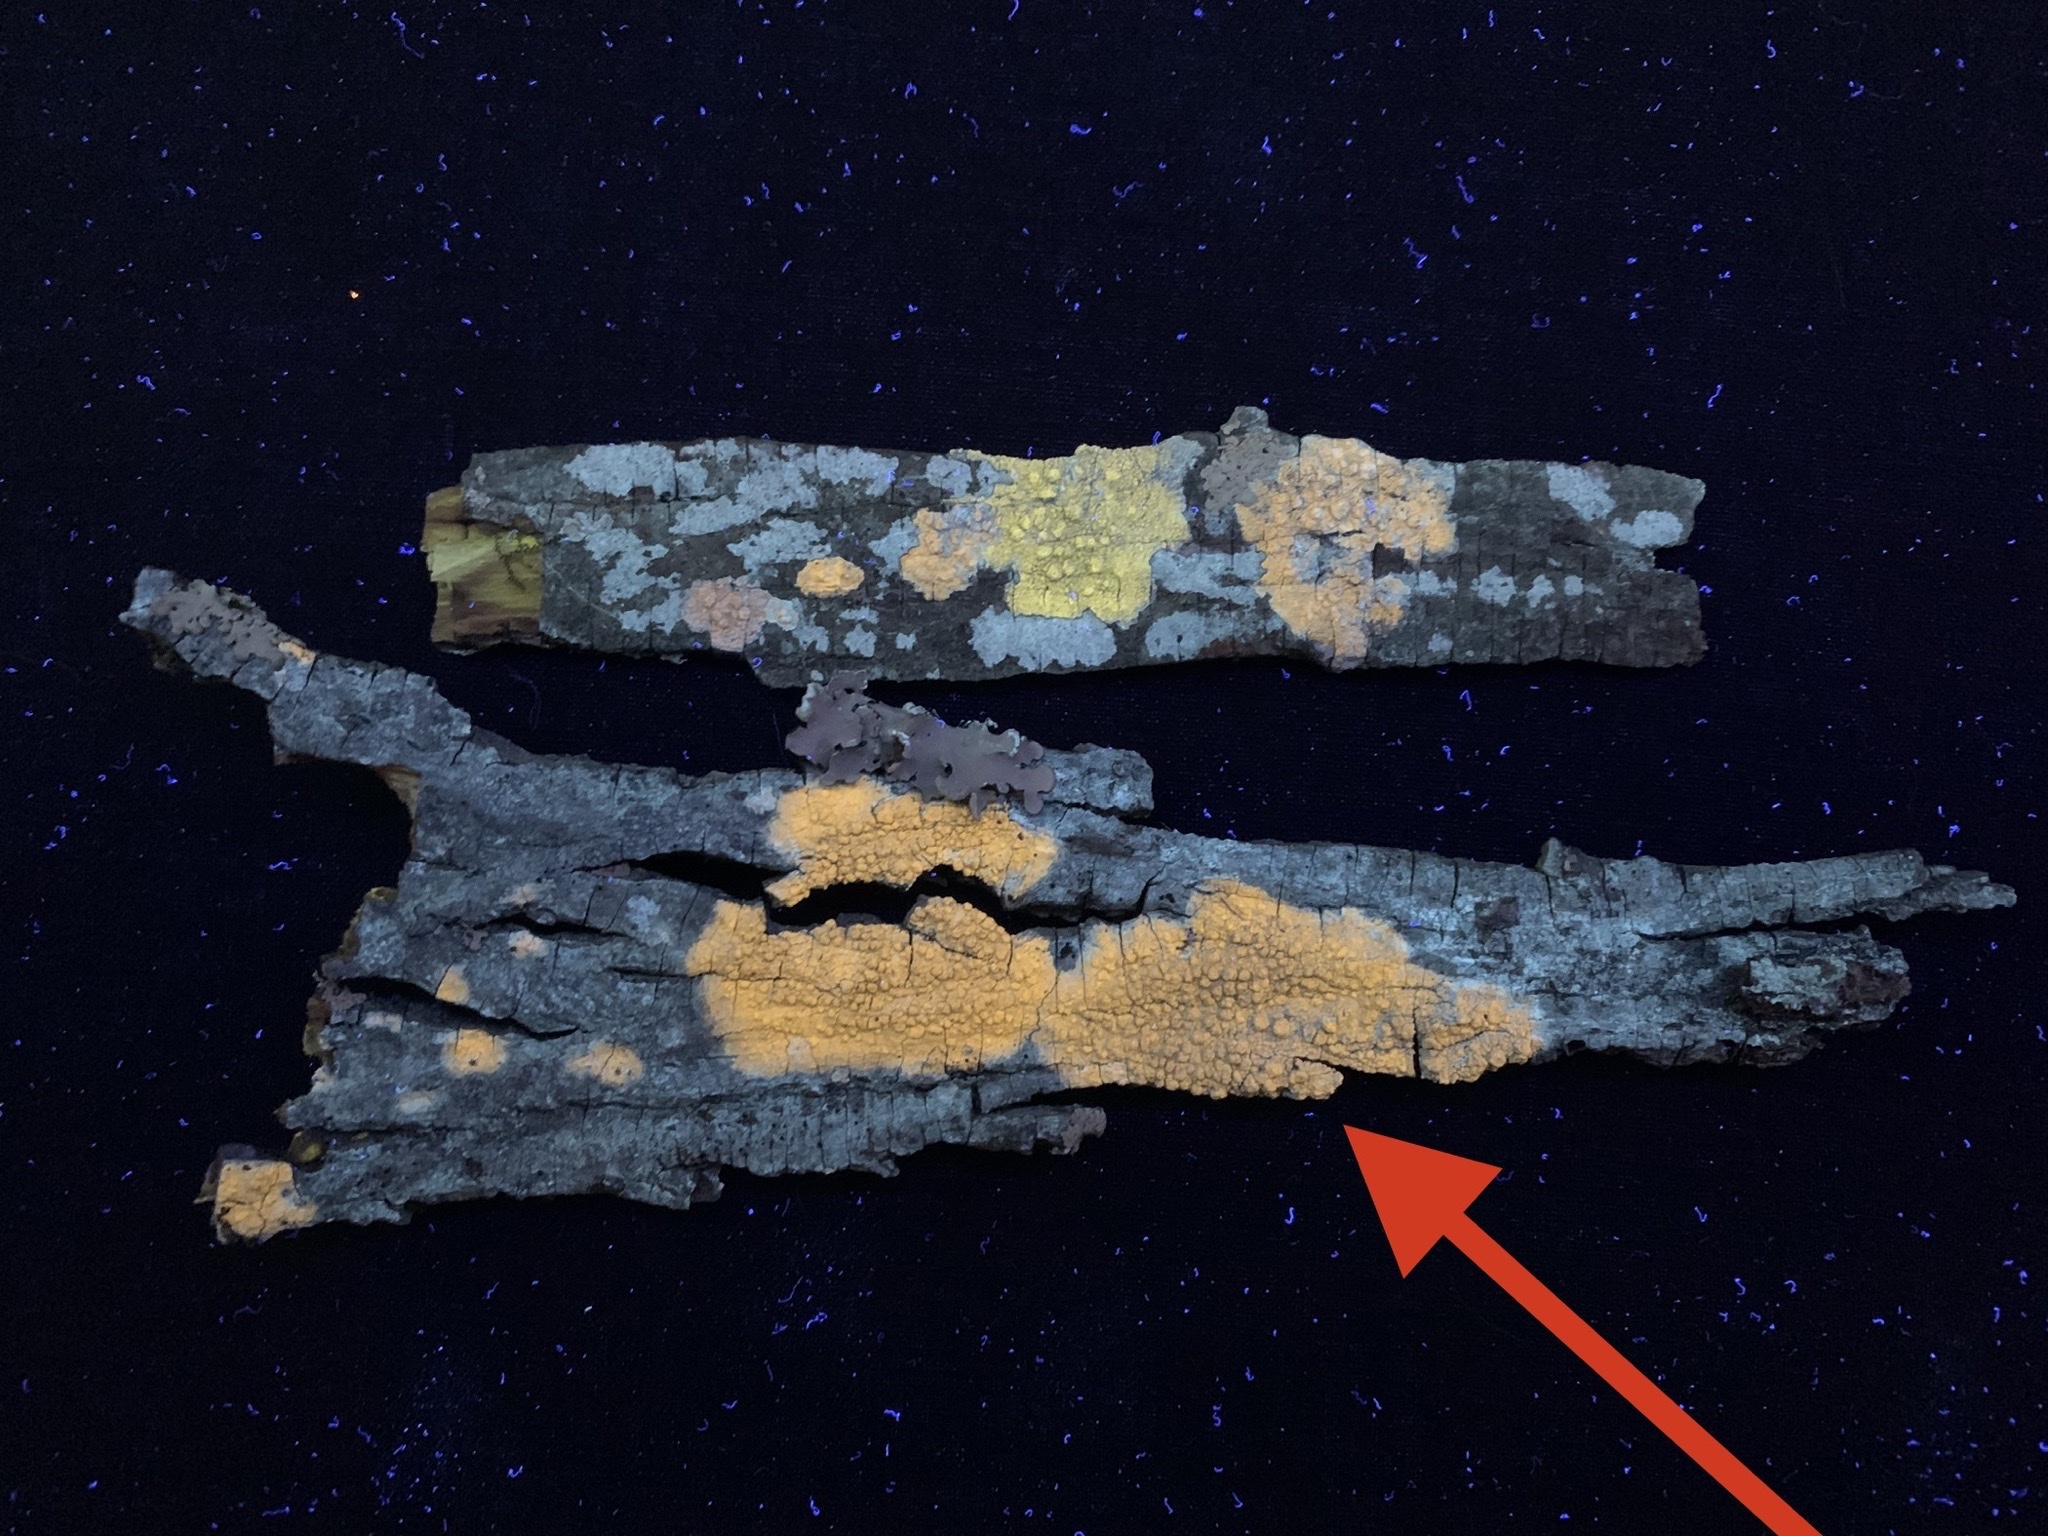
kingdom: Fungi
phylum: Ascomycota
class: Lecanoromycetes
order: Pertusariales
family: Pertusariaceae
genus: Pertusaria
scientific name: Pertusaria texana
